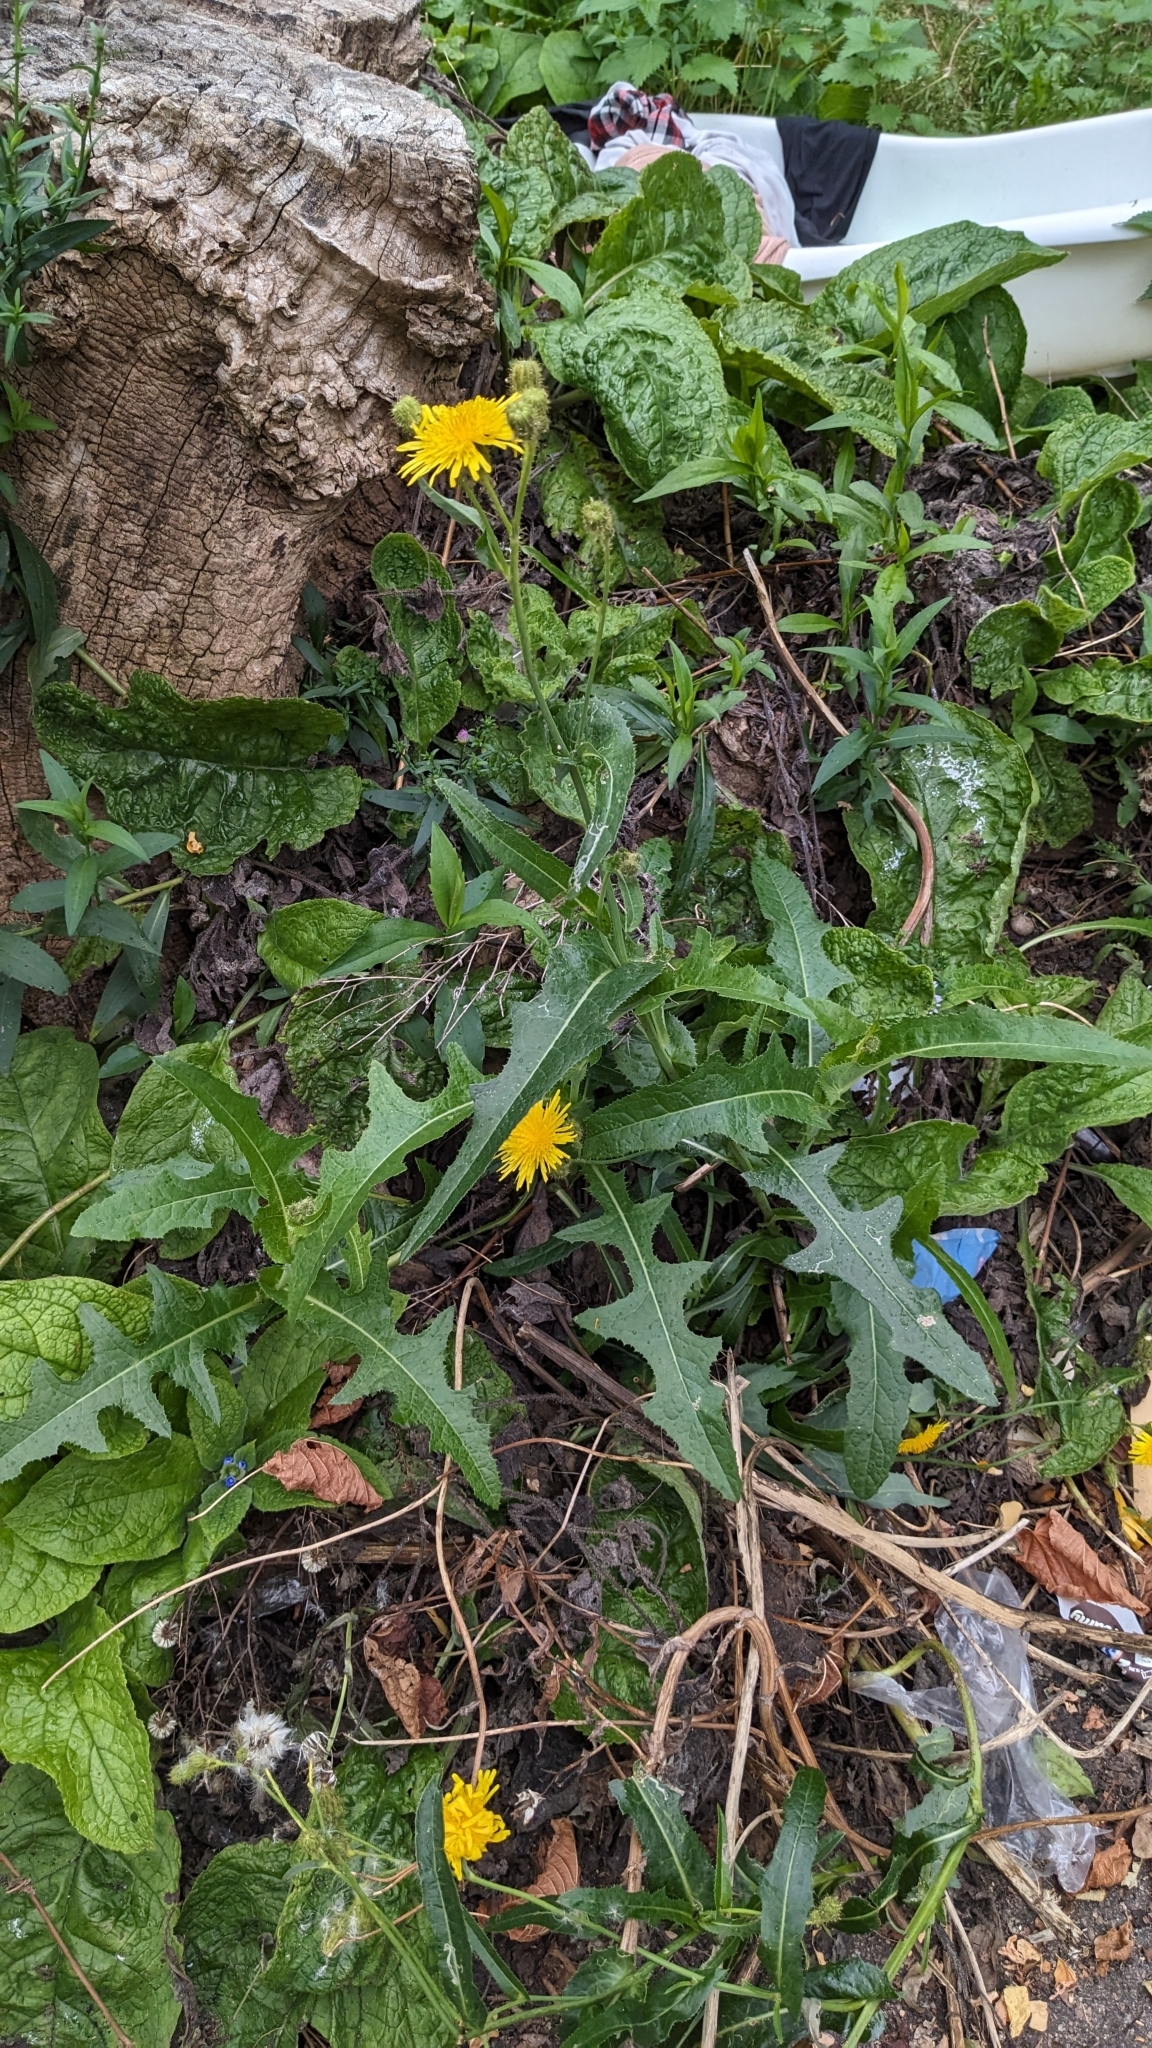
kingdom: Plantae
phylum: Tracheophyta
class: Magnoliopsida
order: Asterales
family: Asteraceae
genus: Sonchus
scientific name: Sonchus arvensis
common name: Perennial sow-thistle
